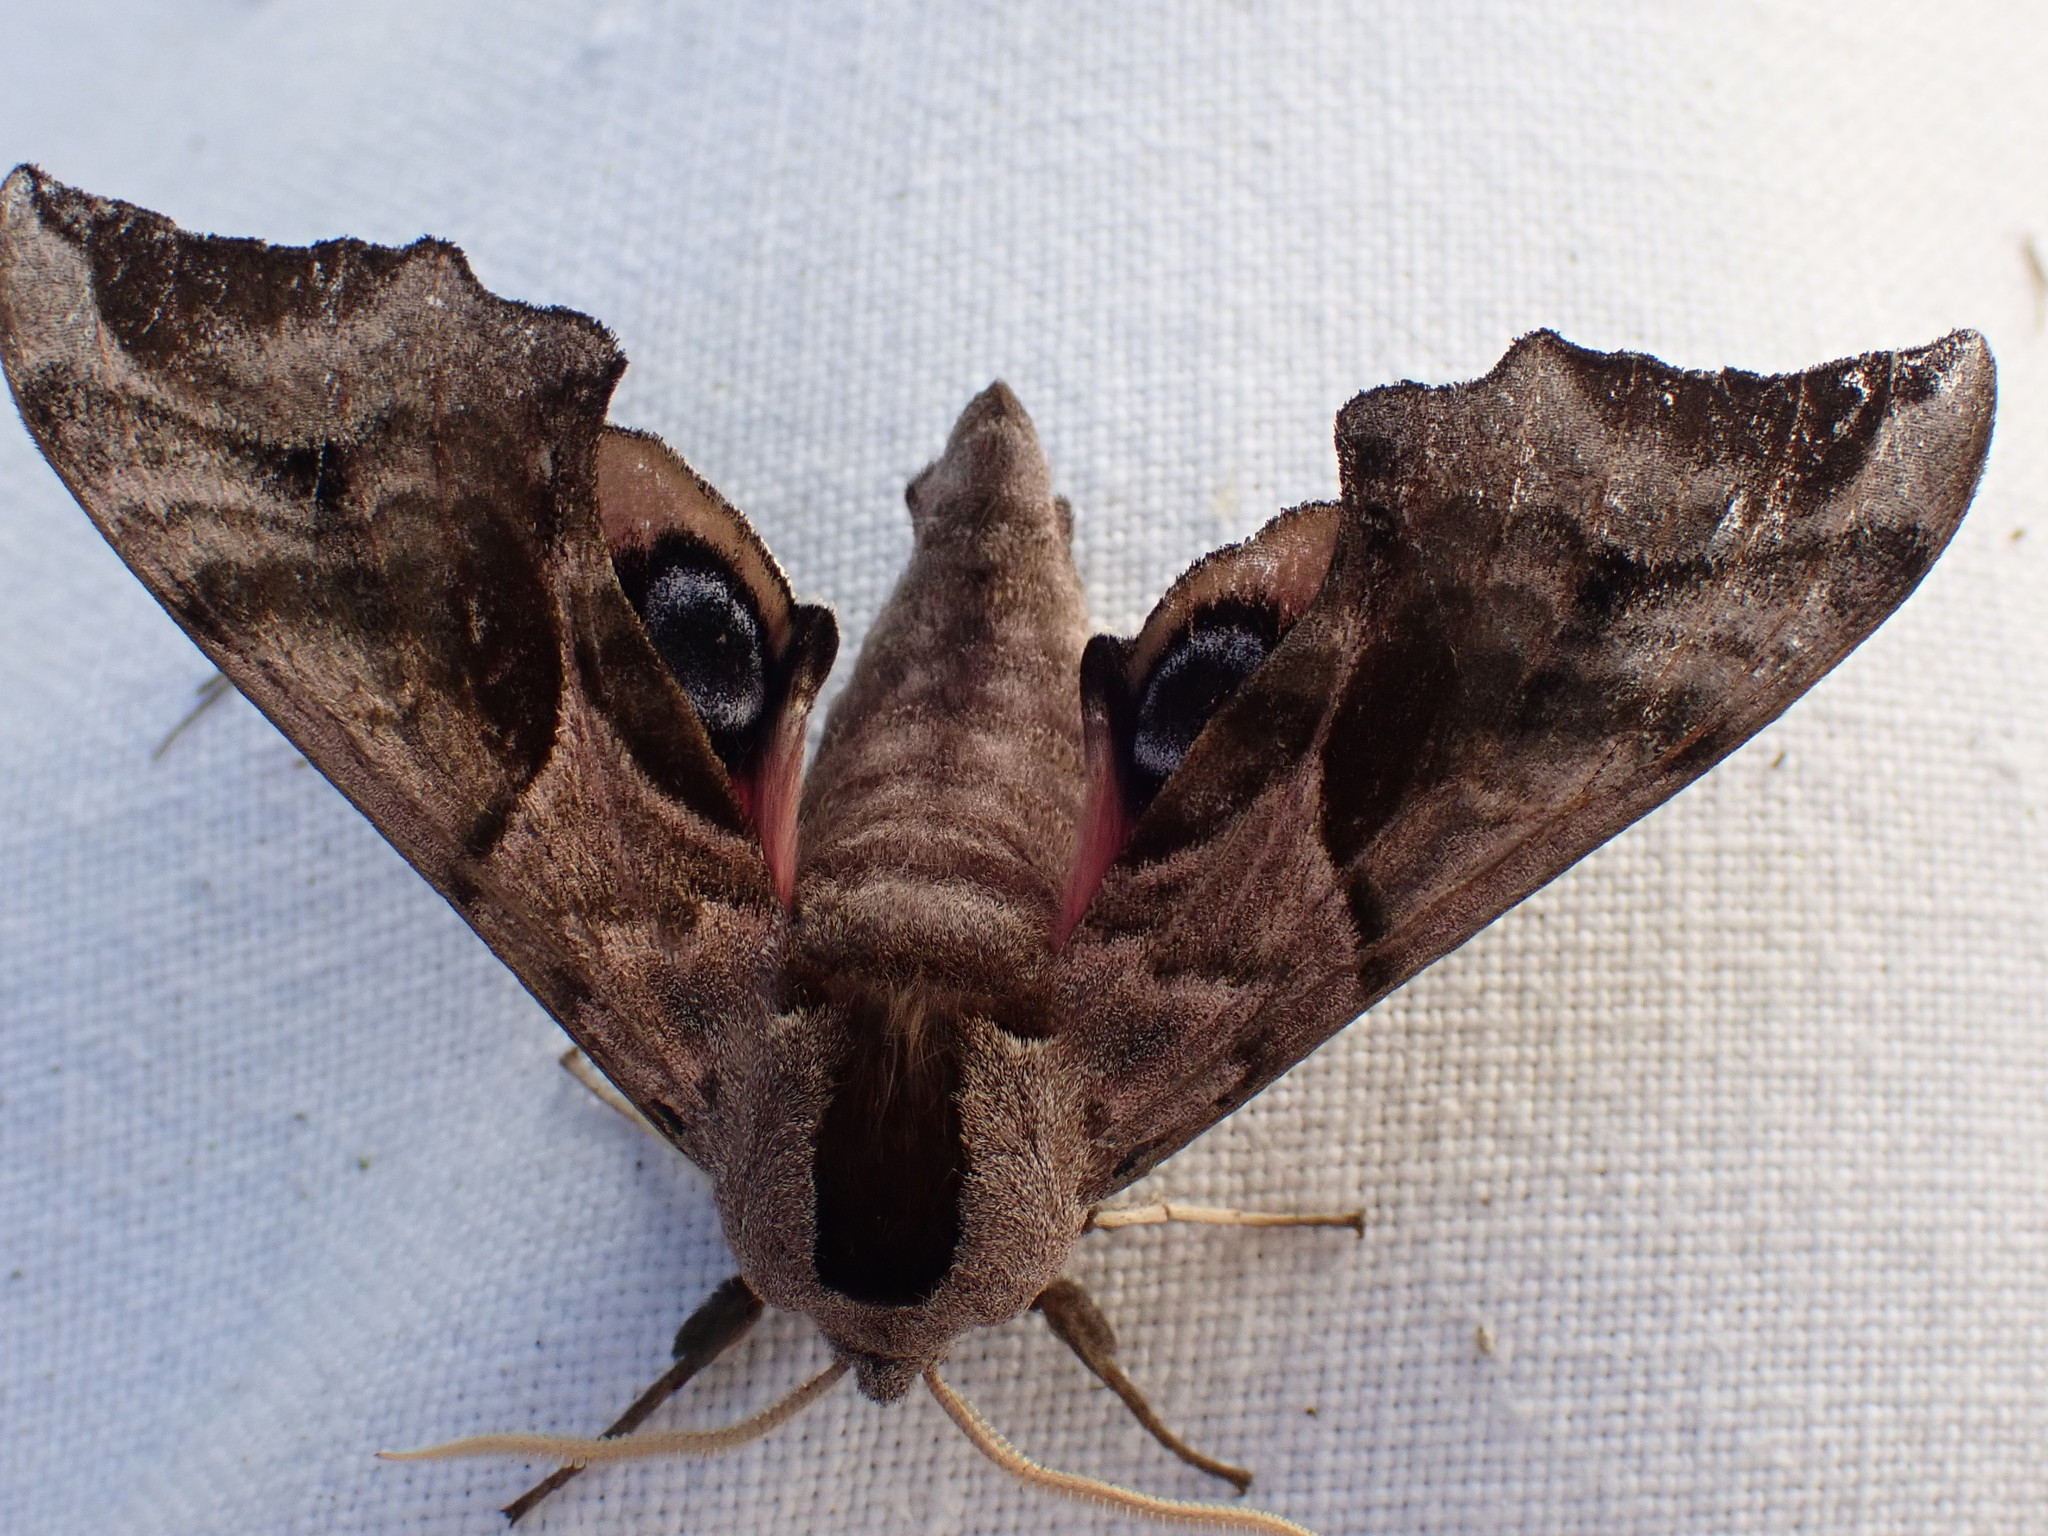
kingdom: Animalia
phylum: Arthropoda
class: Insecta
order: Lepidoptera
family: Sphingidae
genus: Smerinthus
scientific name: Smerinthus ocellata
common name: Eyed hawk-moth
